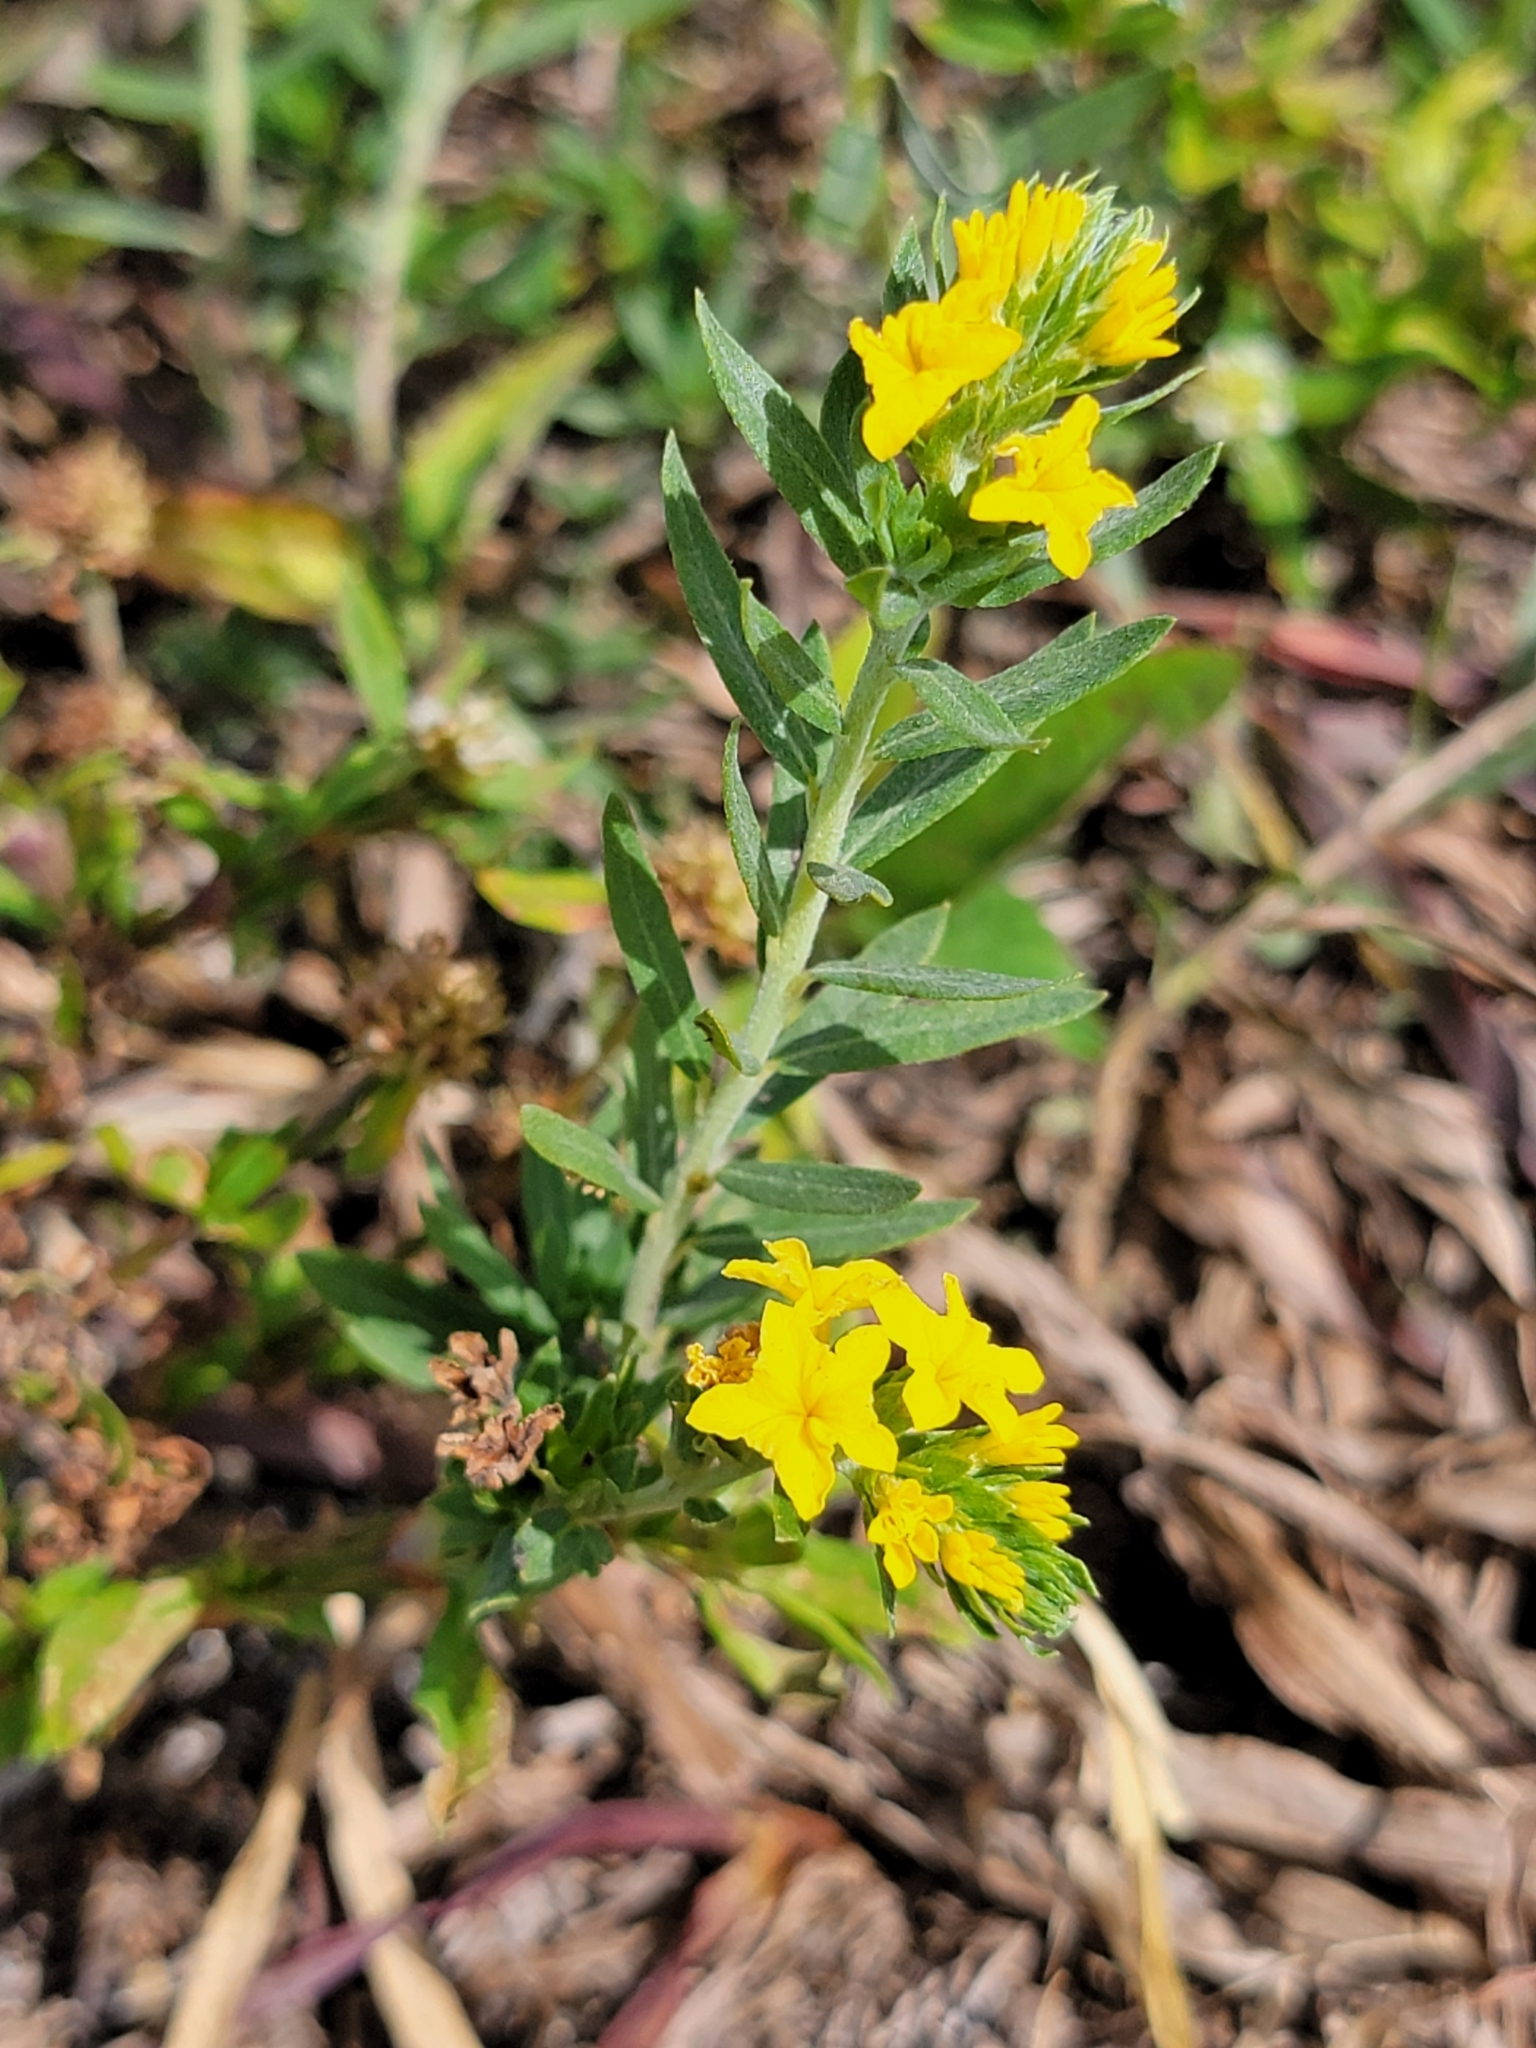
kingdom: Plantae
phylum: Tracheophyta
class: Magnoliopsida
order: Boraginales
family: Heliotropiaceae
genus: Euploca
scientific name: Euploca polyphylla
